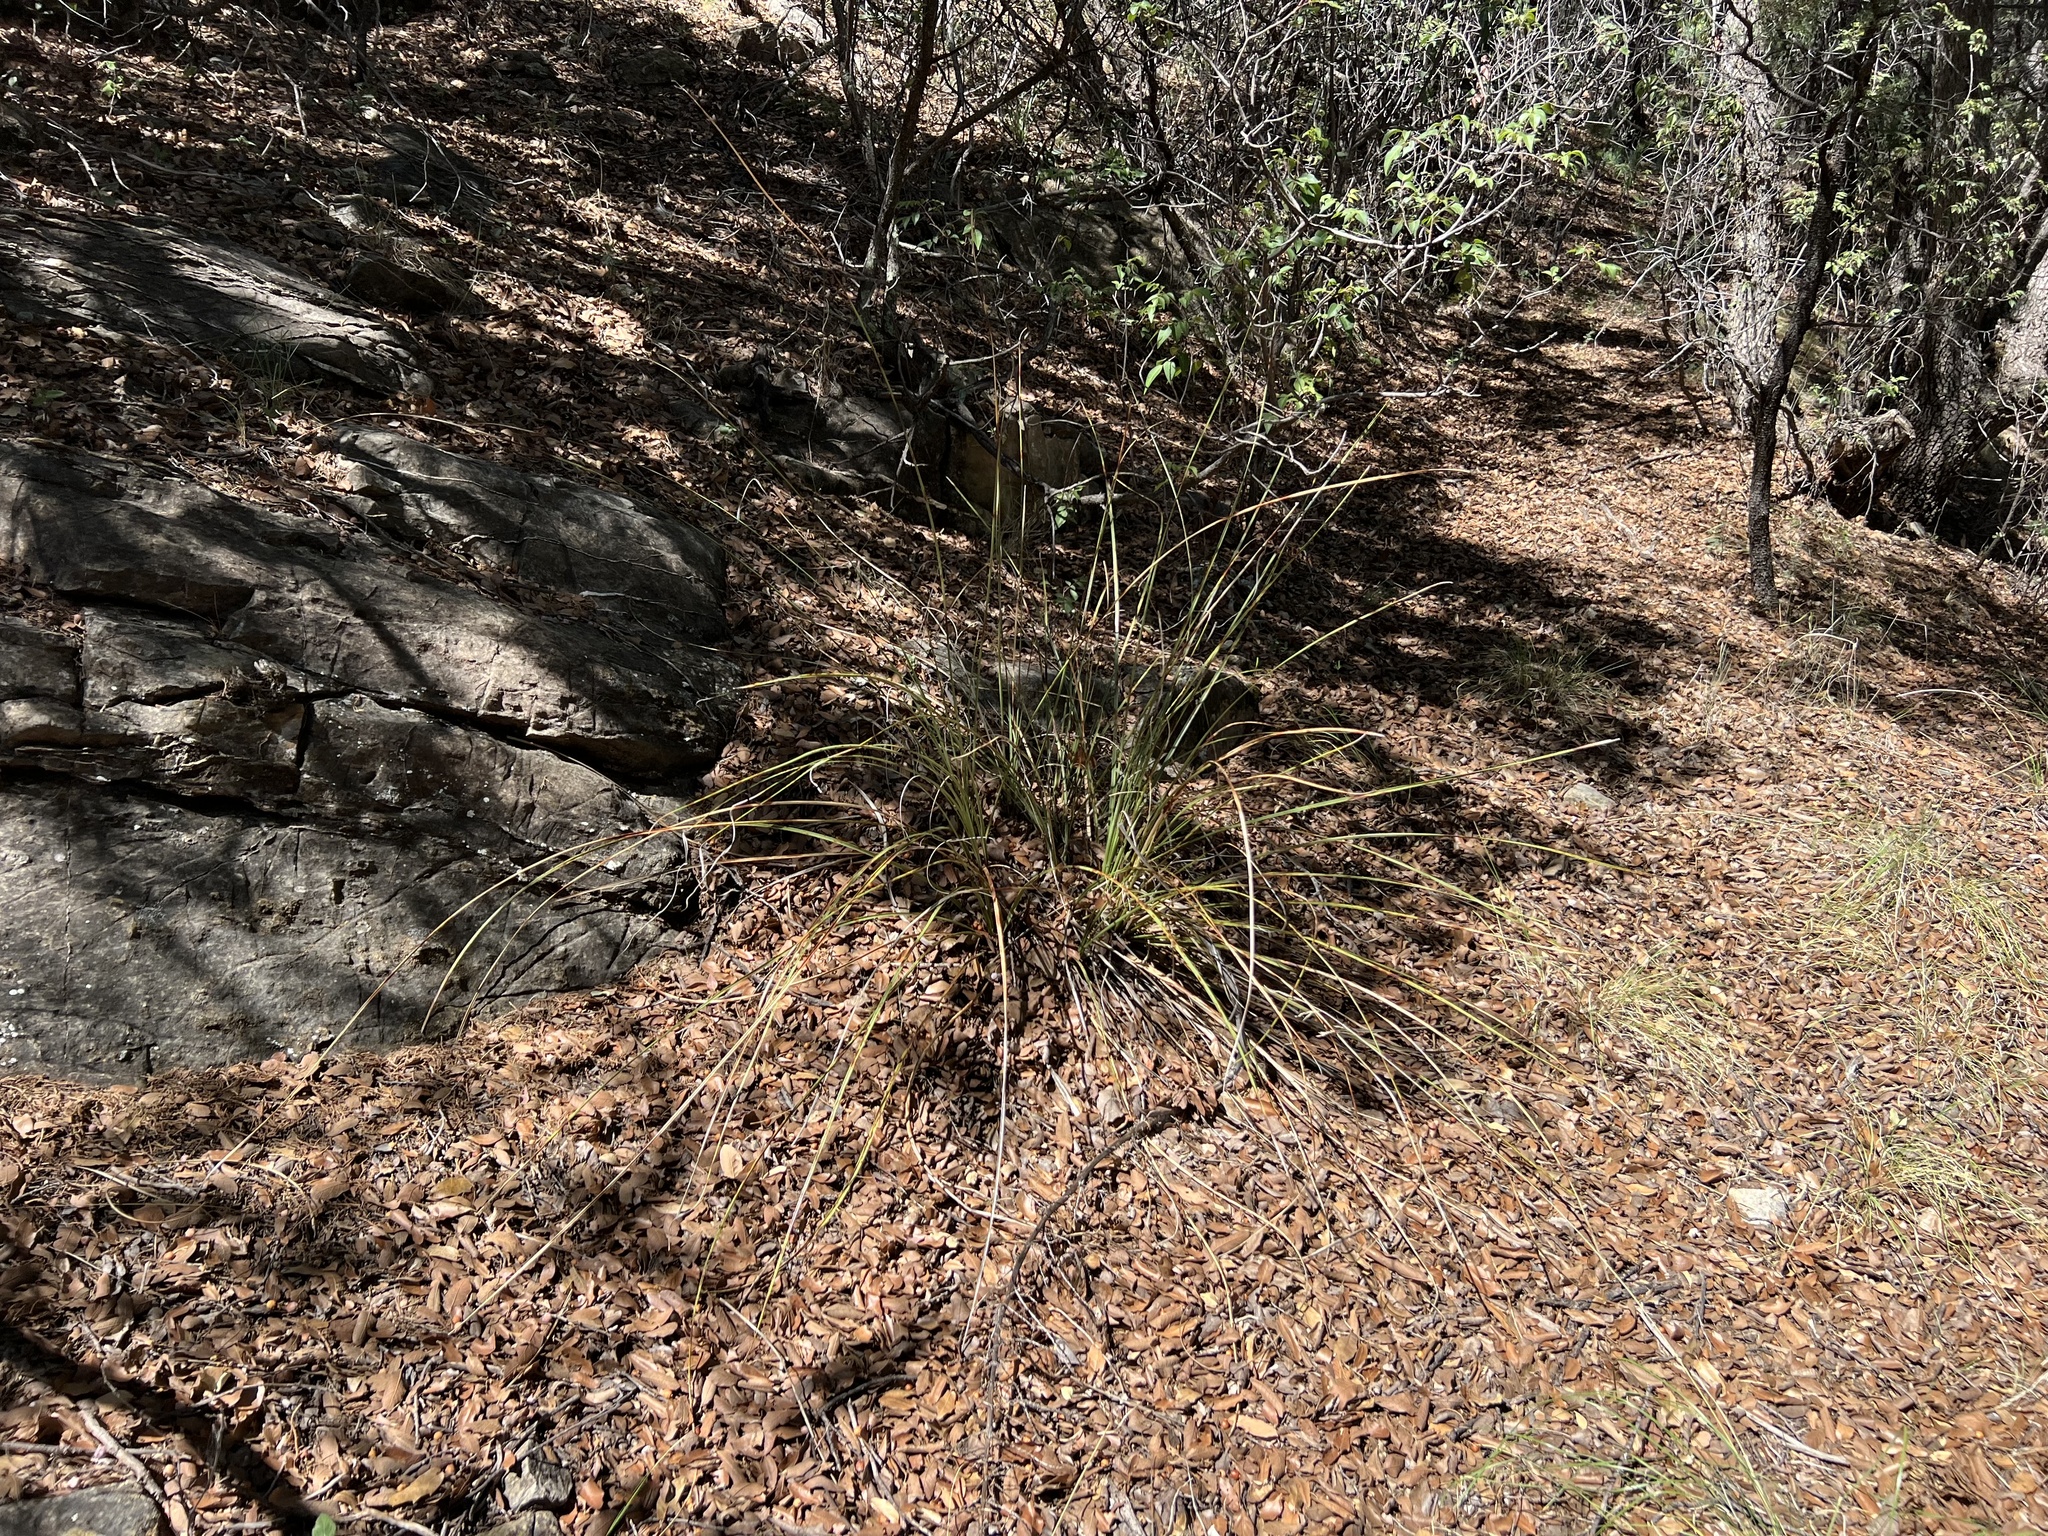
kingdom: Plantae
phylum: Tracheophyta
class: Liliopsida
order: Asparagales
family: Asparagaceae
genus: Nolina
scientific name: Nolina microcarpa
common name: Bear-grass
